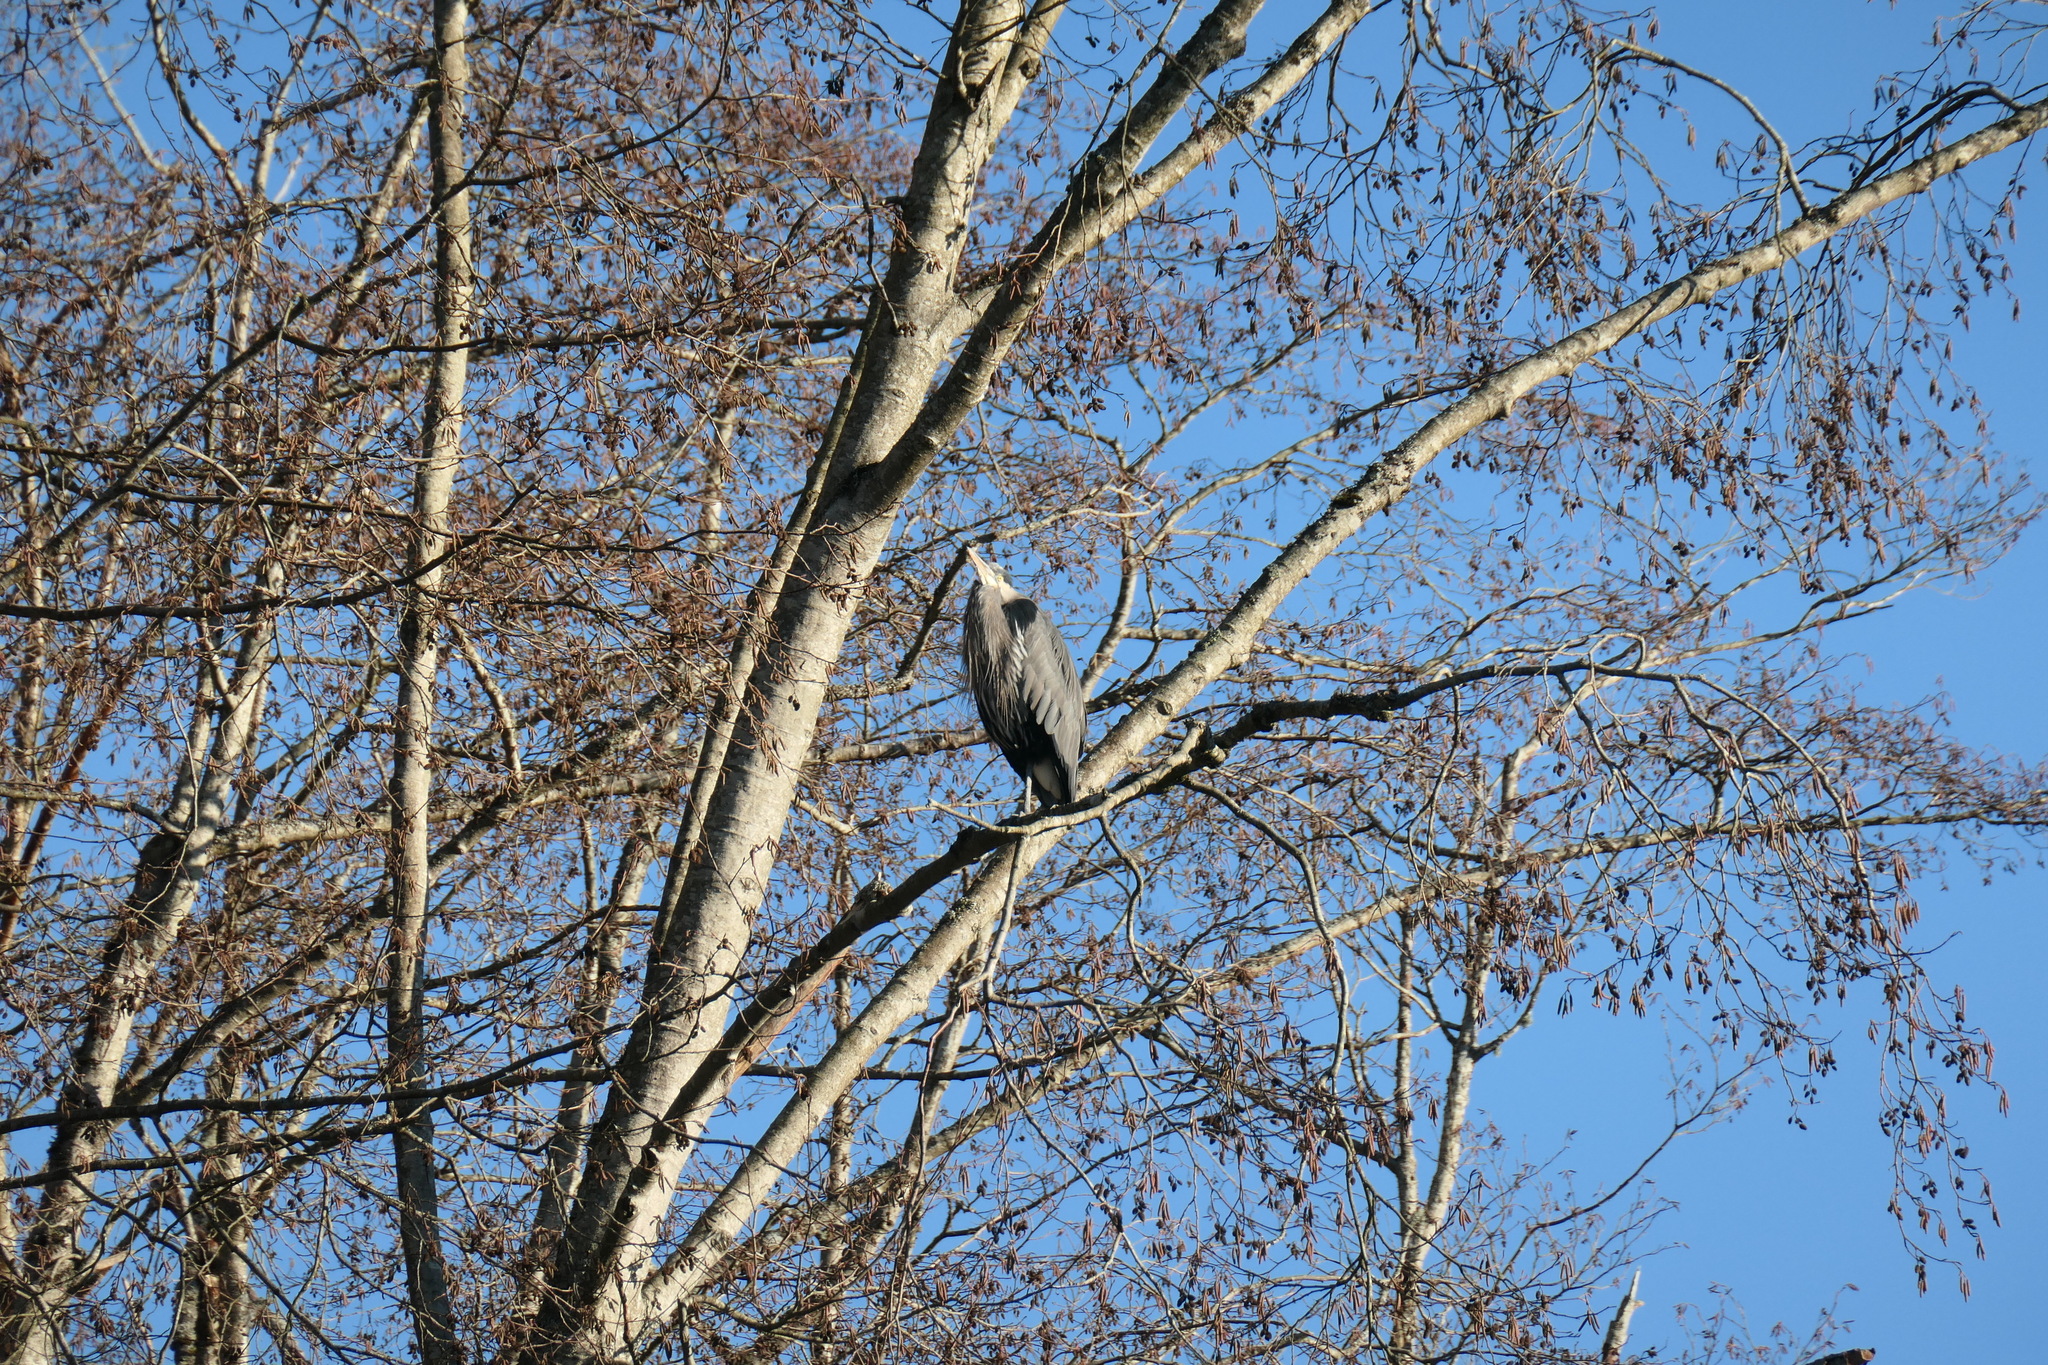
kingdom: Animalia
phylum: Chordata
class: Aves
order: Pelecaniformes
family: Ardeidae
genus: Ardea
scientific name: Ardea herodias
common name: Great blue heron
